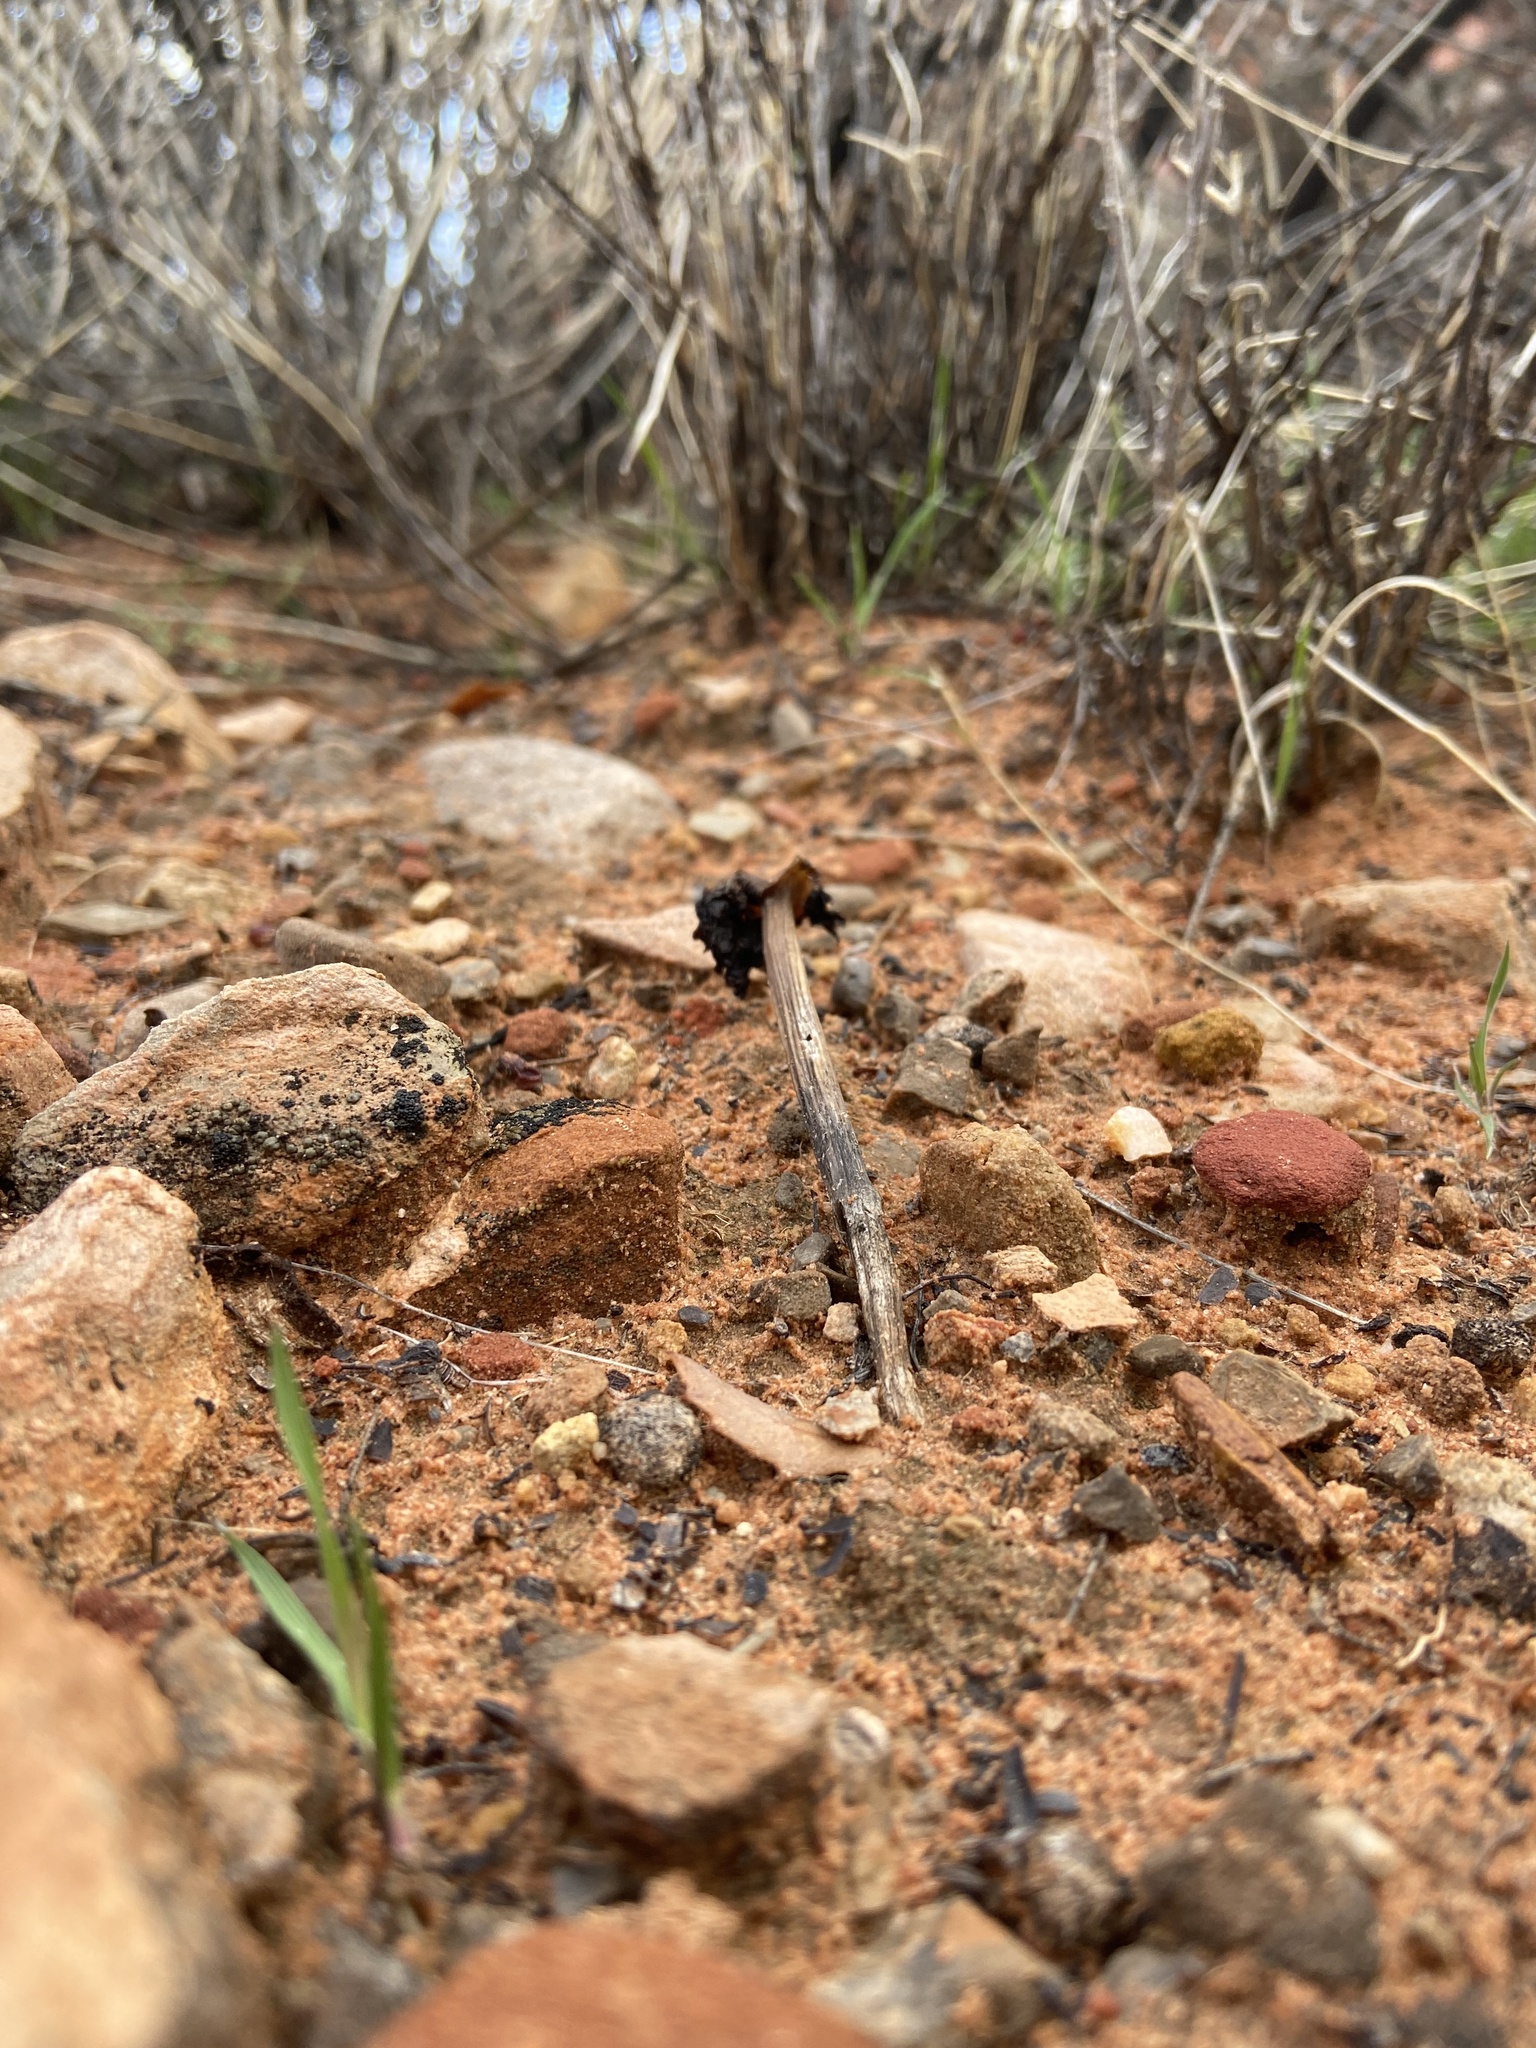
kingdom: Fungi
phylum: Basidiomycota
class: Agaricomycetes
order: Agaricales
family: Agaricaceae
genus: Montagnea
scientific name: Montagnea arenaria
